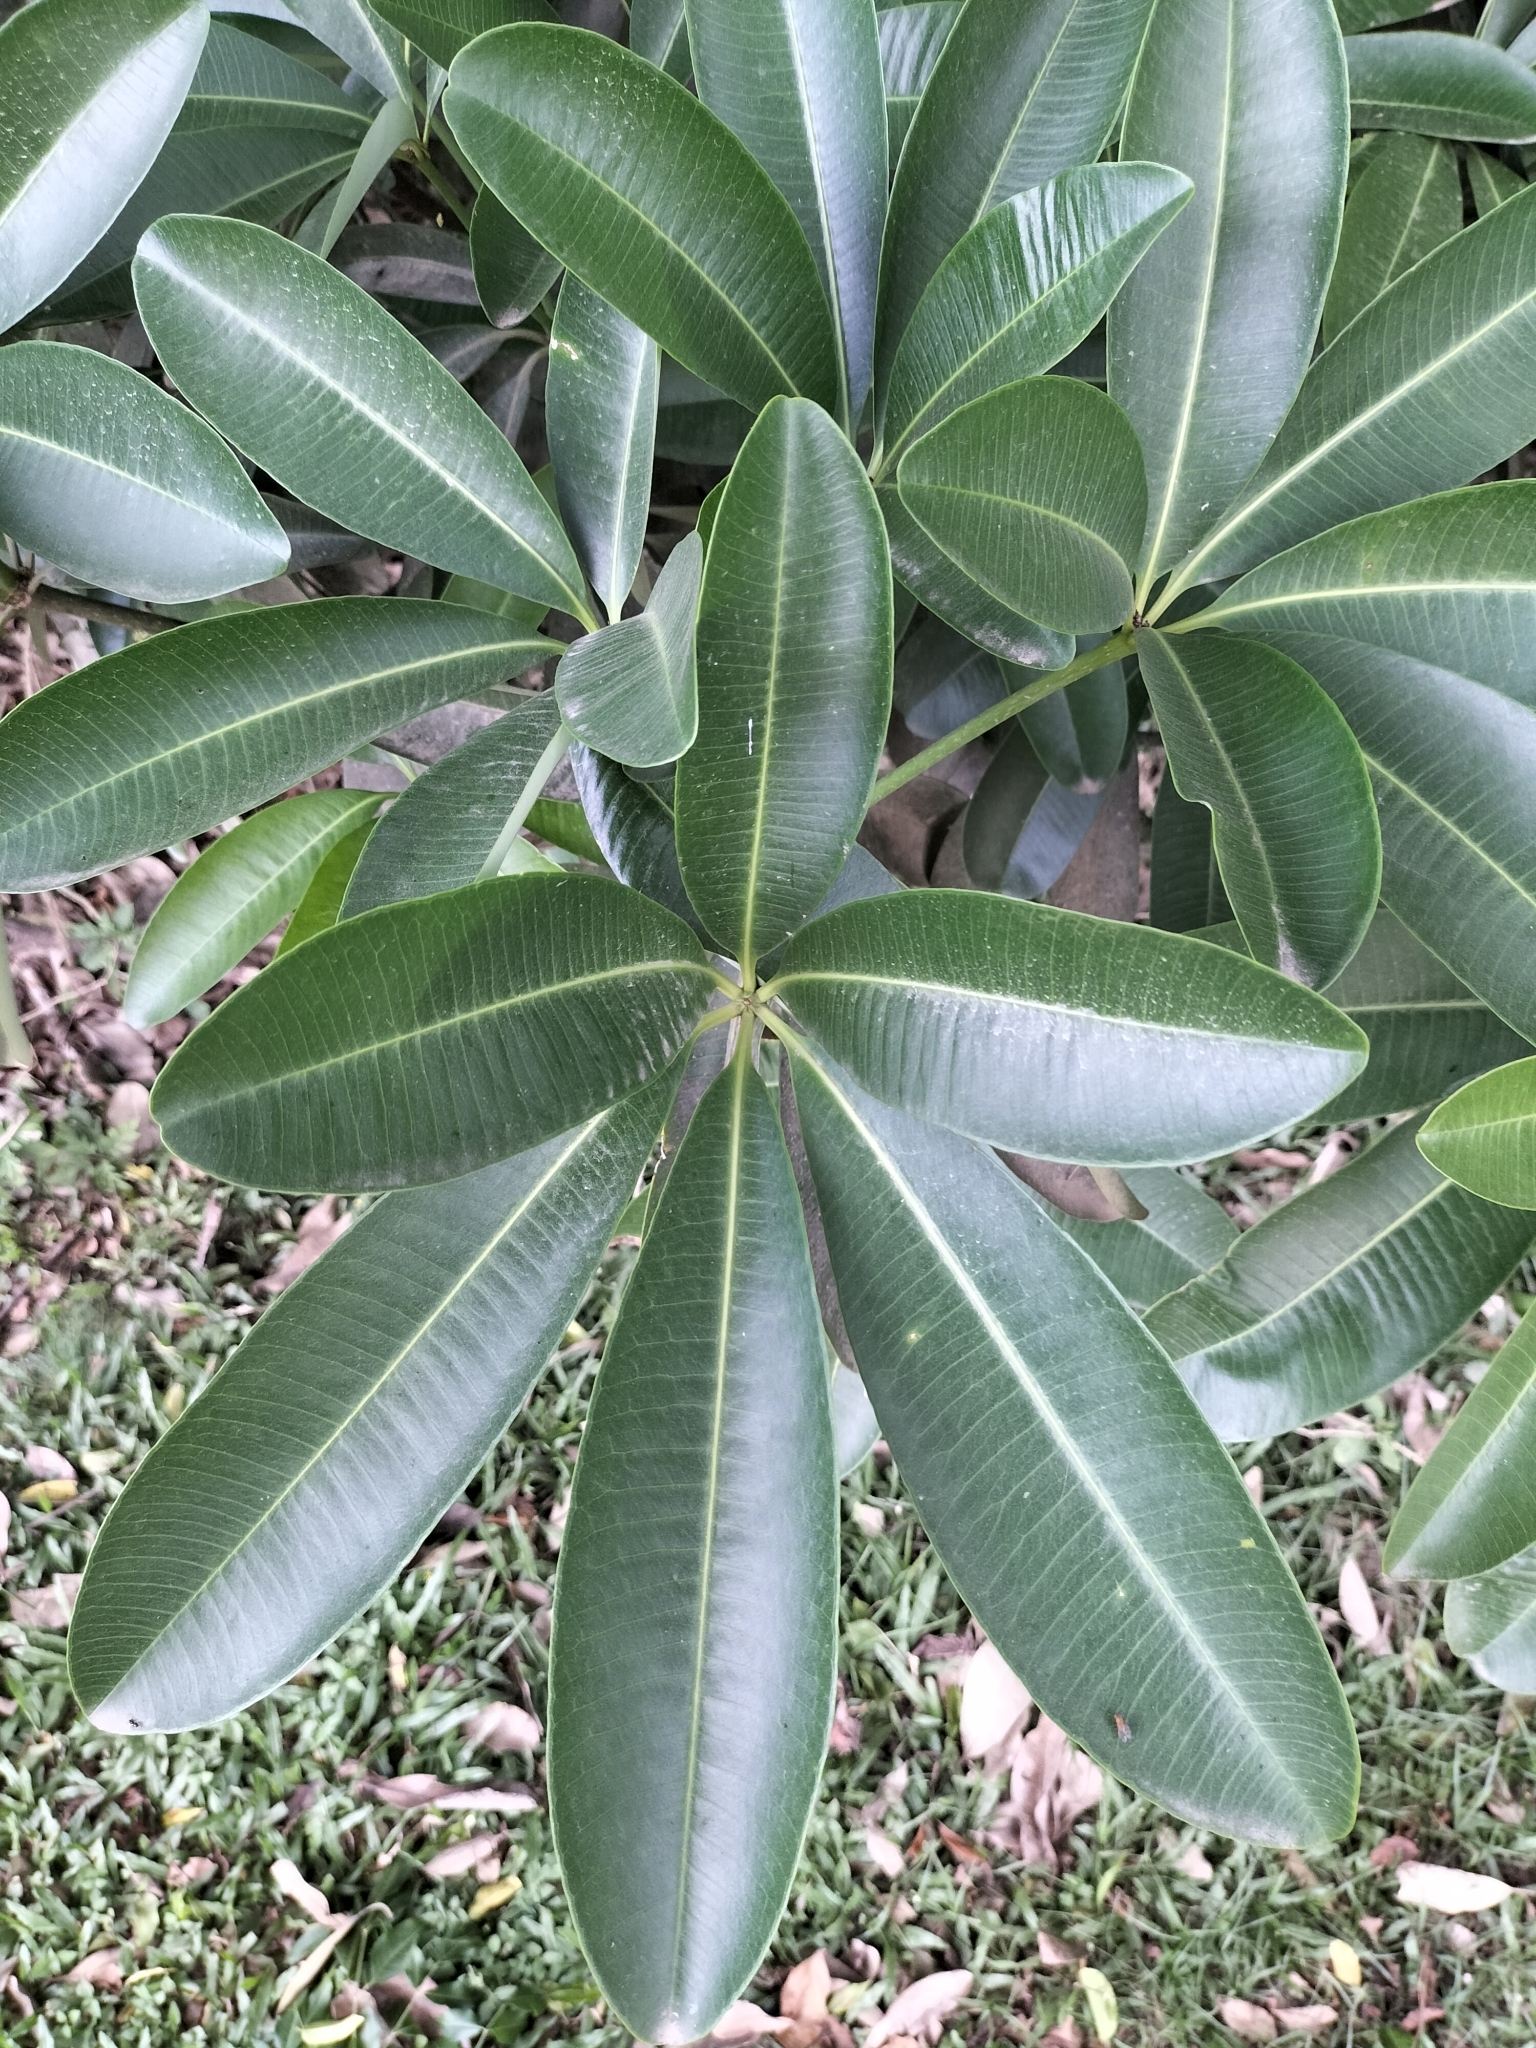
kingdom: Plantae
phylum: Tracheophyta
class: Magnoliopsida
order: Gentianales
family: Apocynaceae
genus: Alstonia
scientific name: Alstonia scholaris
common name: White cheesewood
